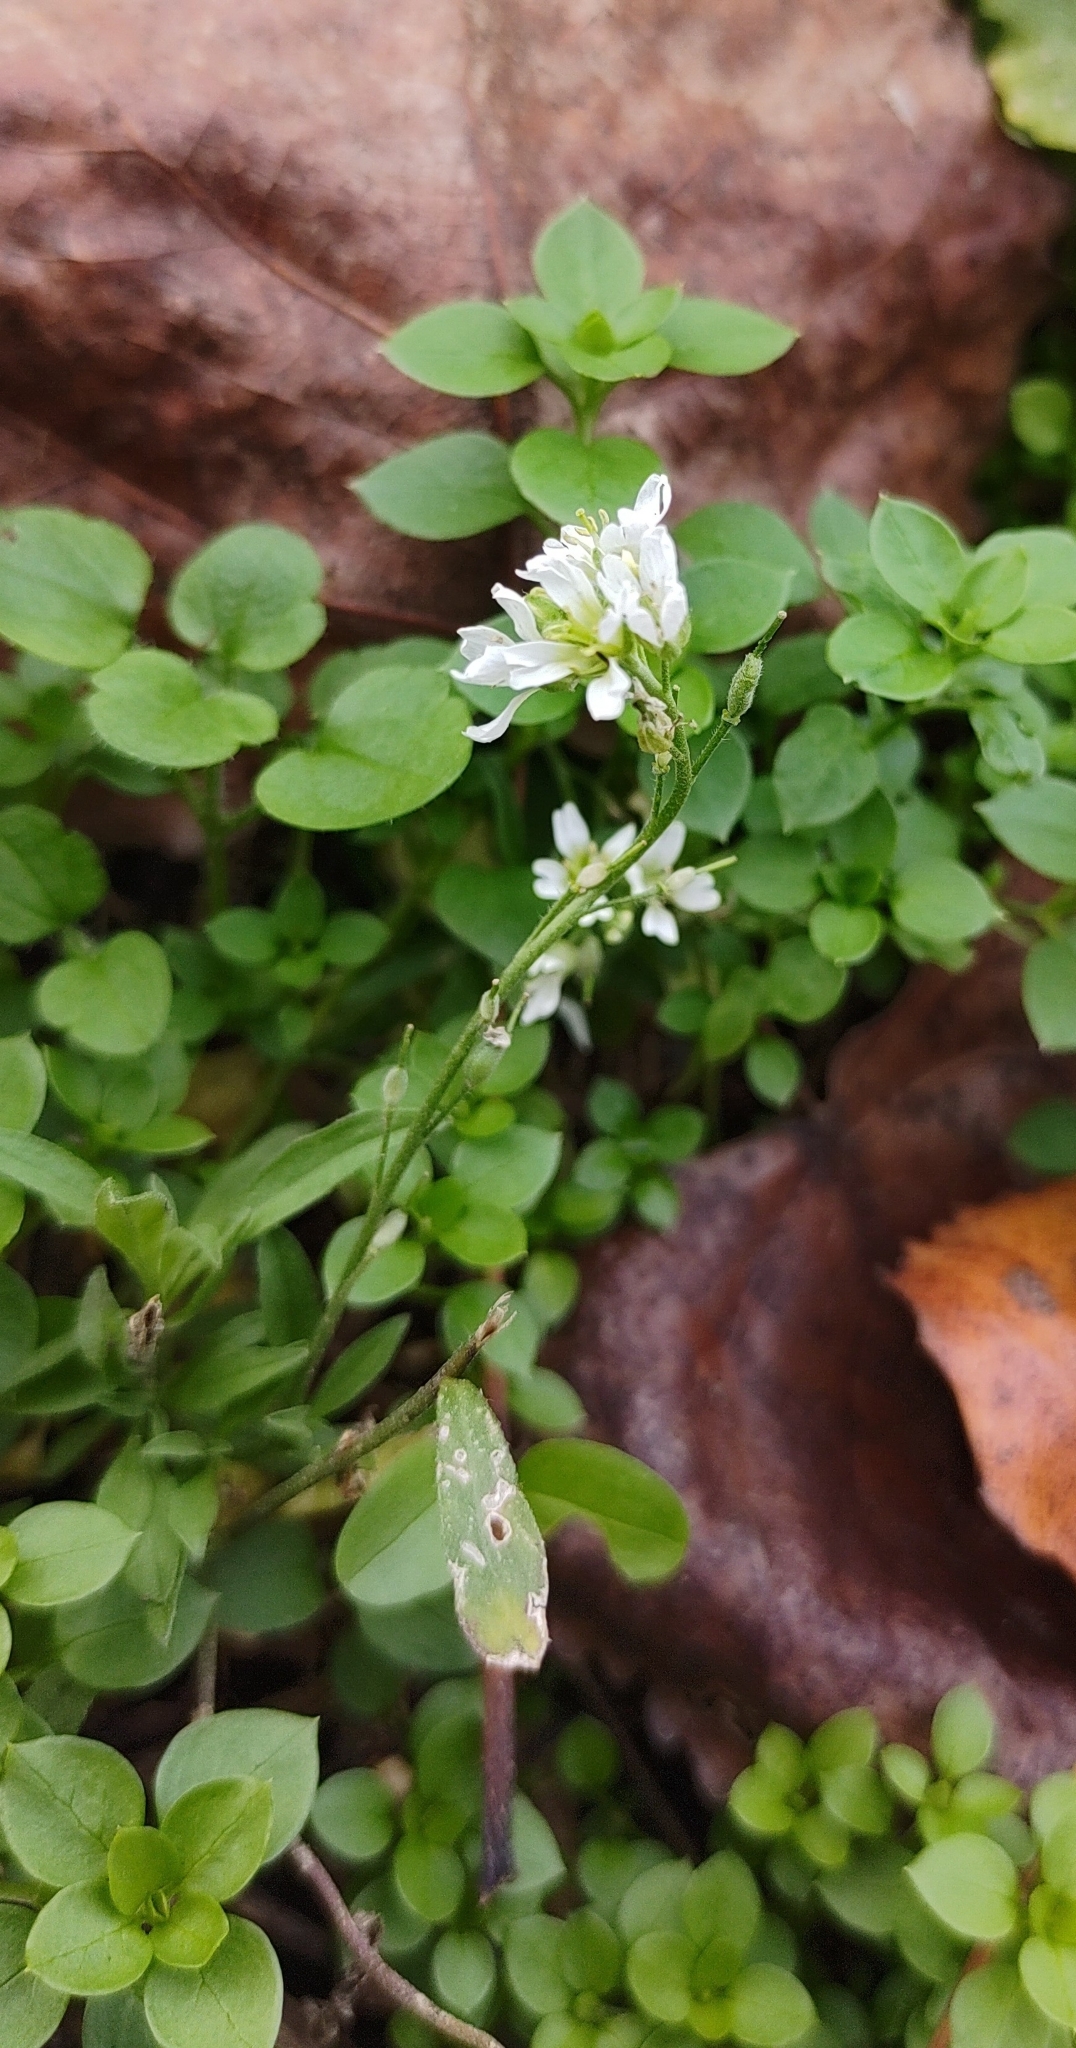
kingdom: Plantae
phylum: Tracheophyta
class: Magnoliopsida
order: Brassicales
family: Brassicaceae
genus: Berteroa
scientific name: Berteroa incana
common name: Hoary alison
